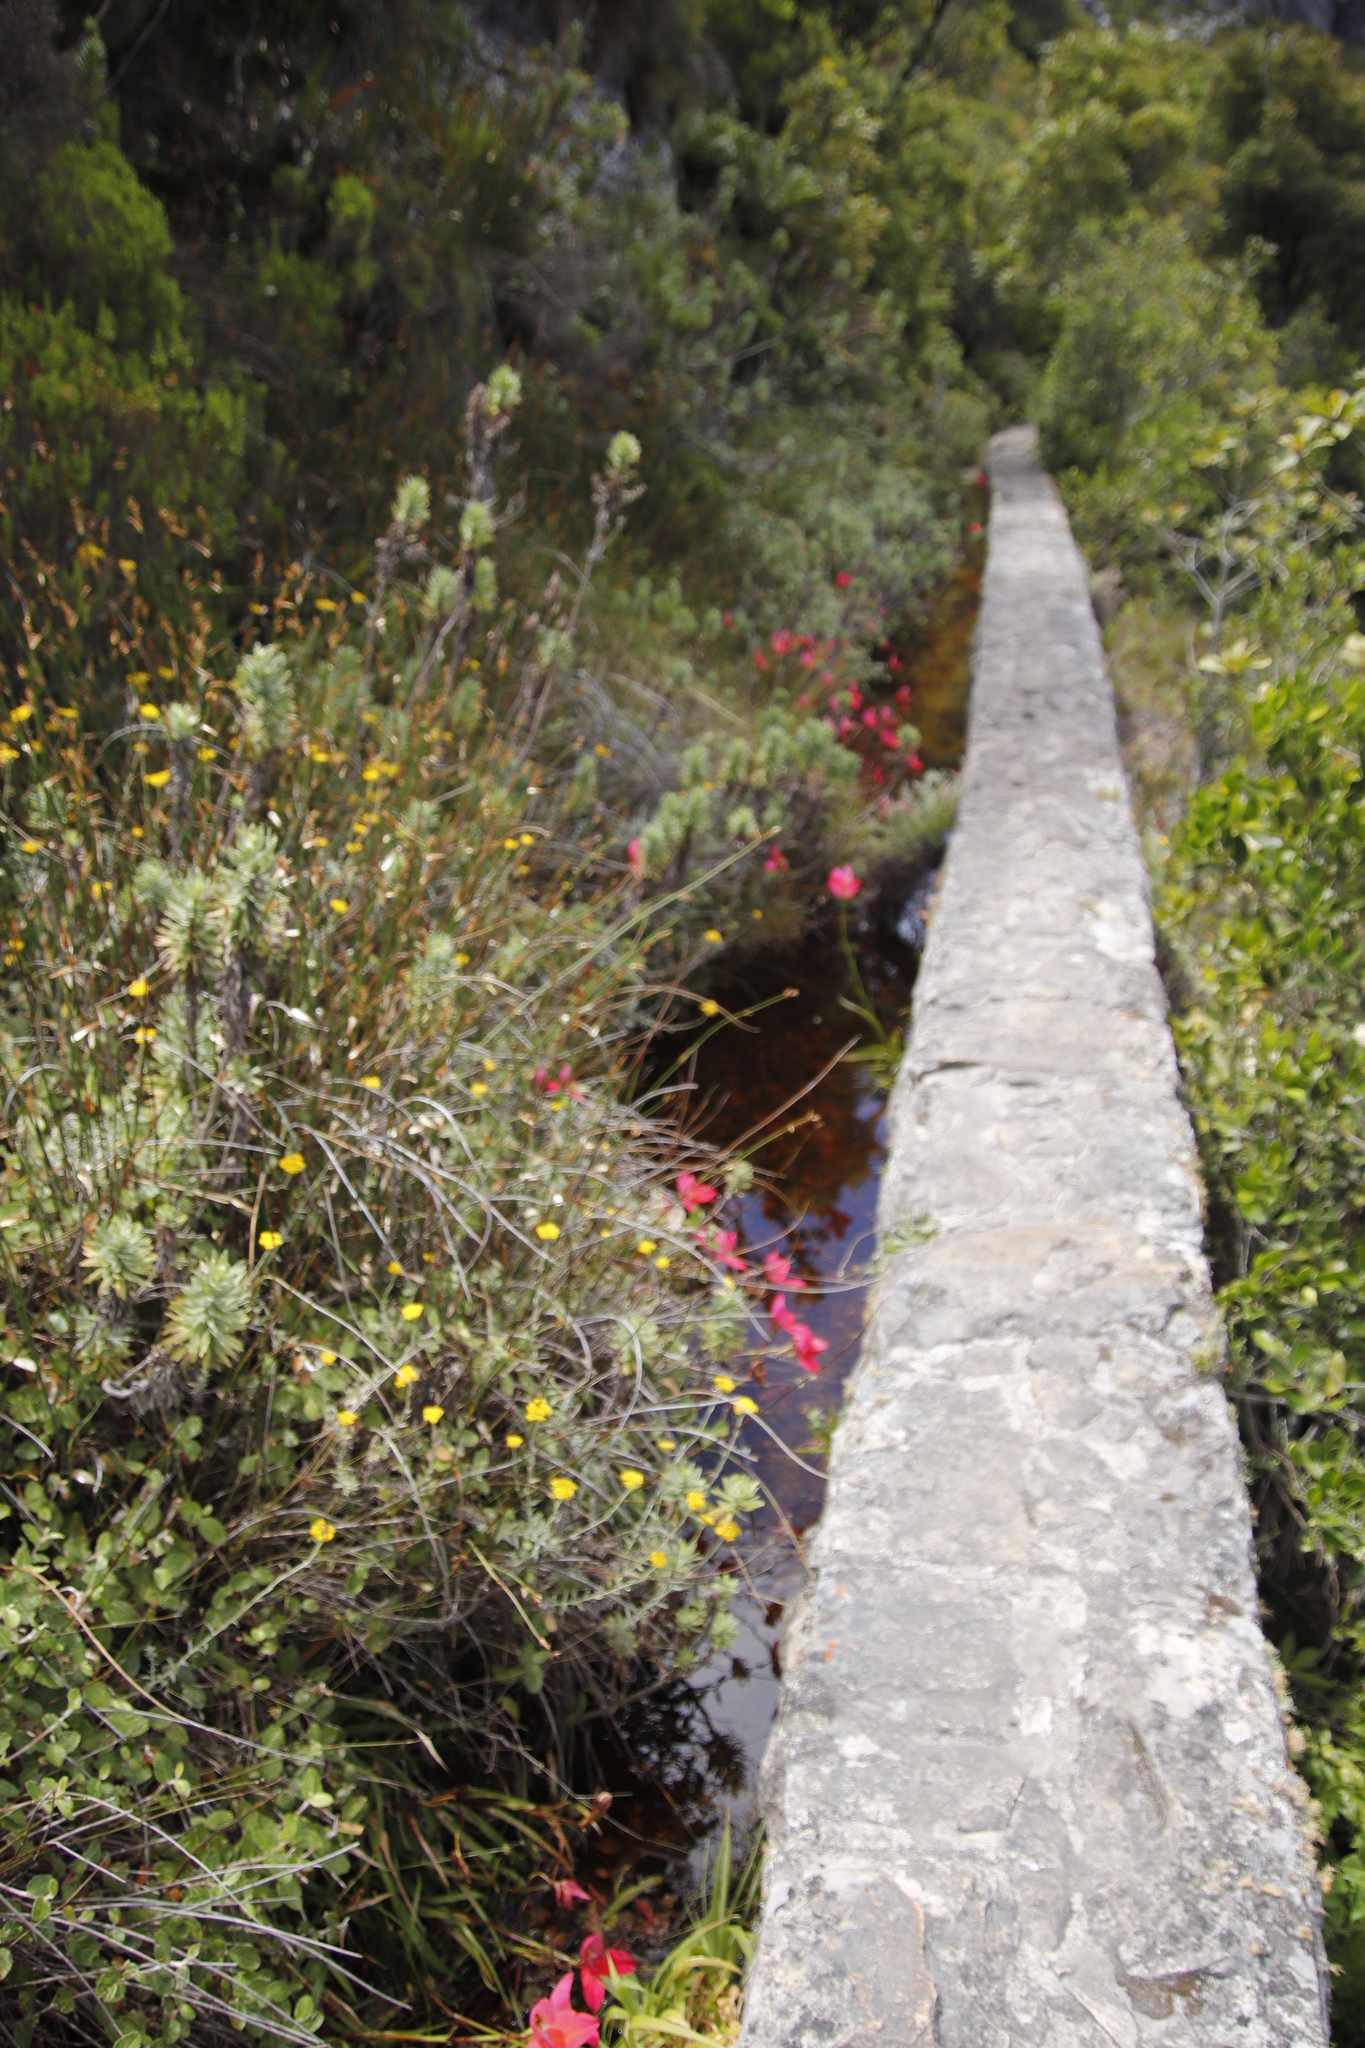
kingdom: Plantae
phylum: Tracheophyta
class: Liliopsida
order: Asparagales
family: Orchidaceae
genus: Disa
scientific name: Disa uniflora
